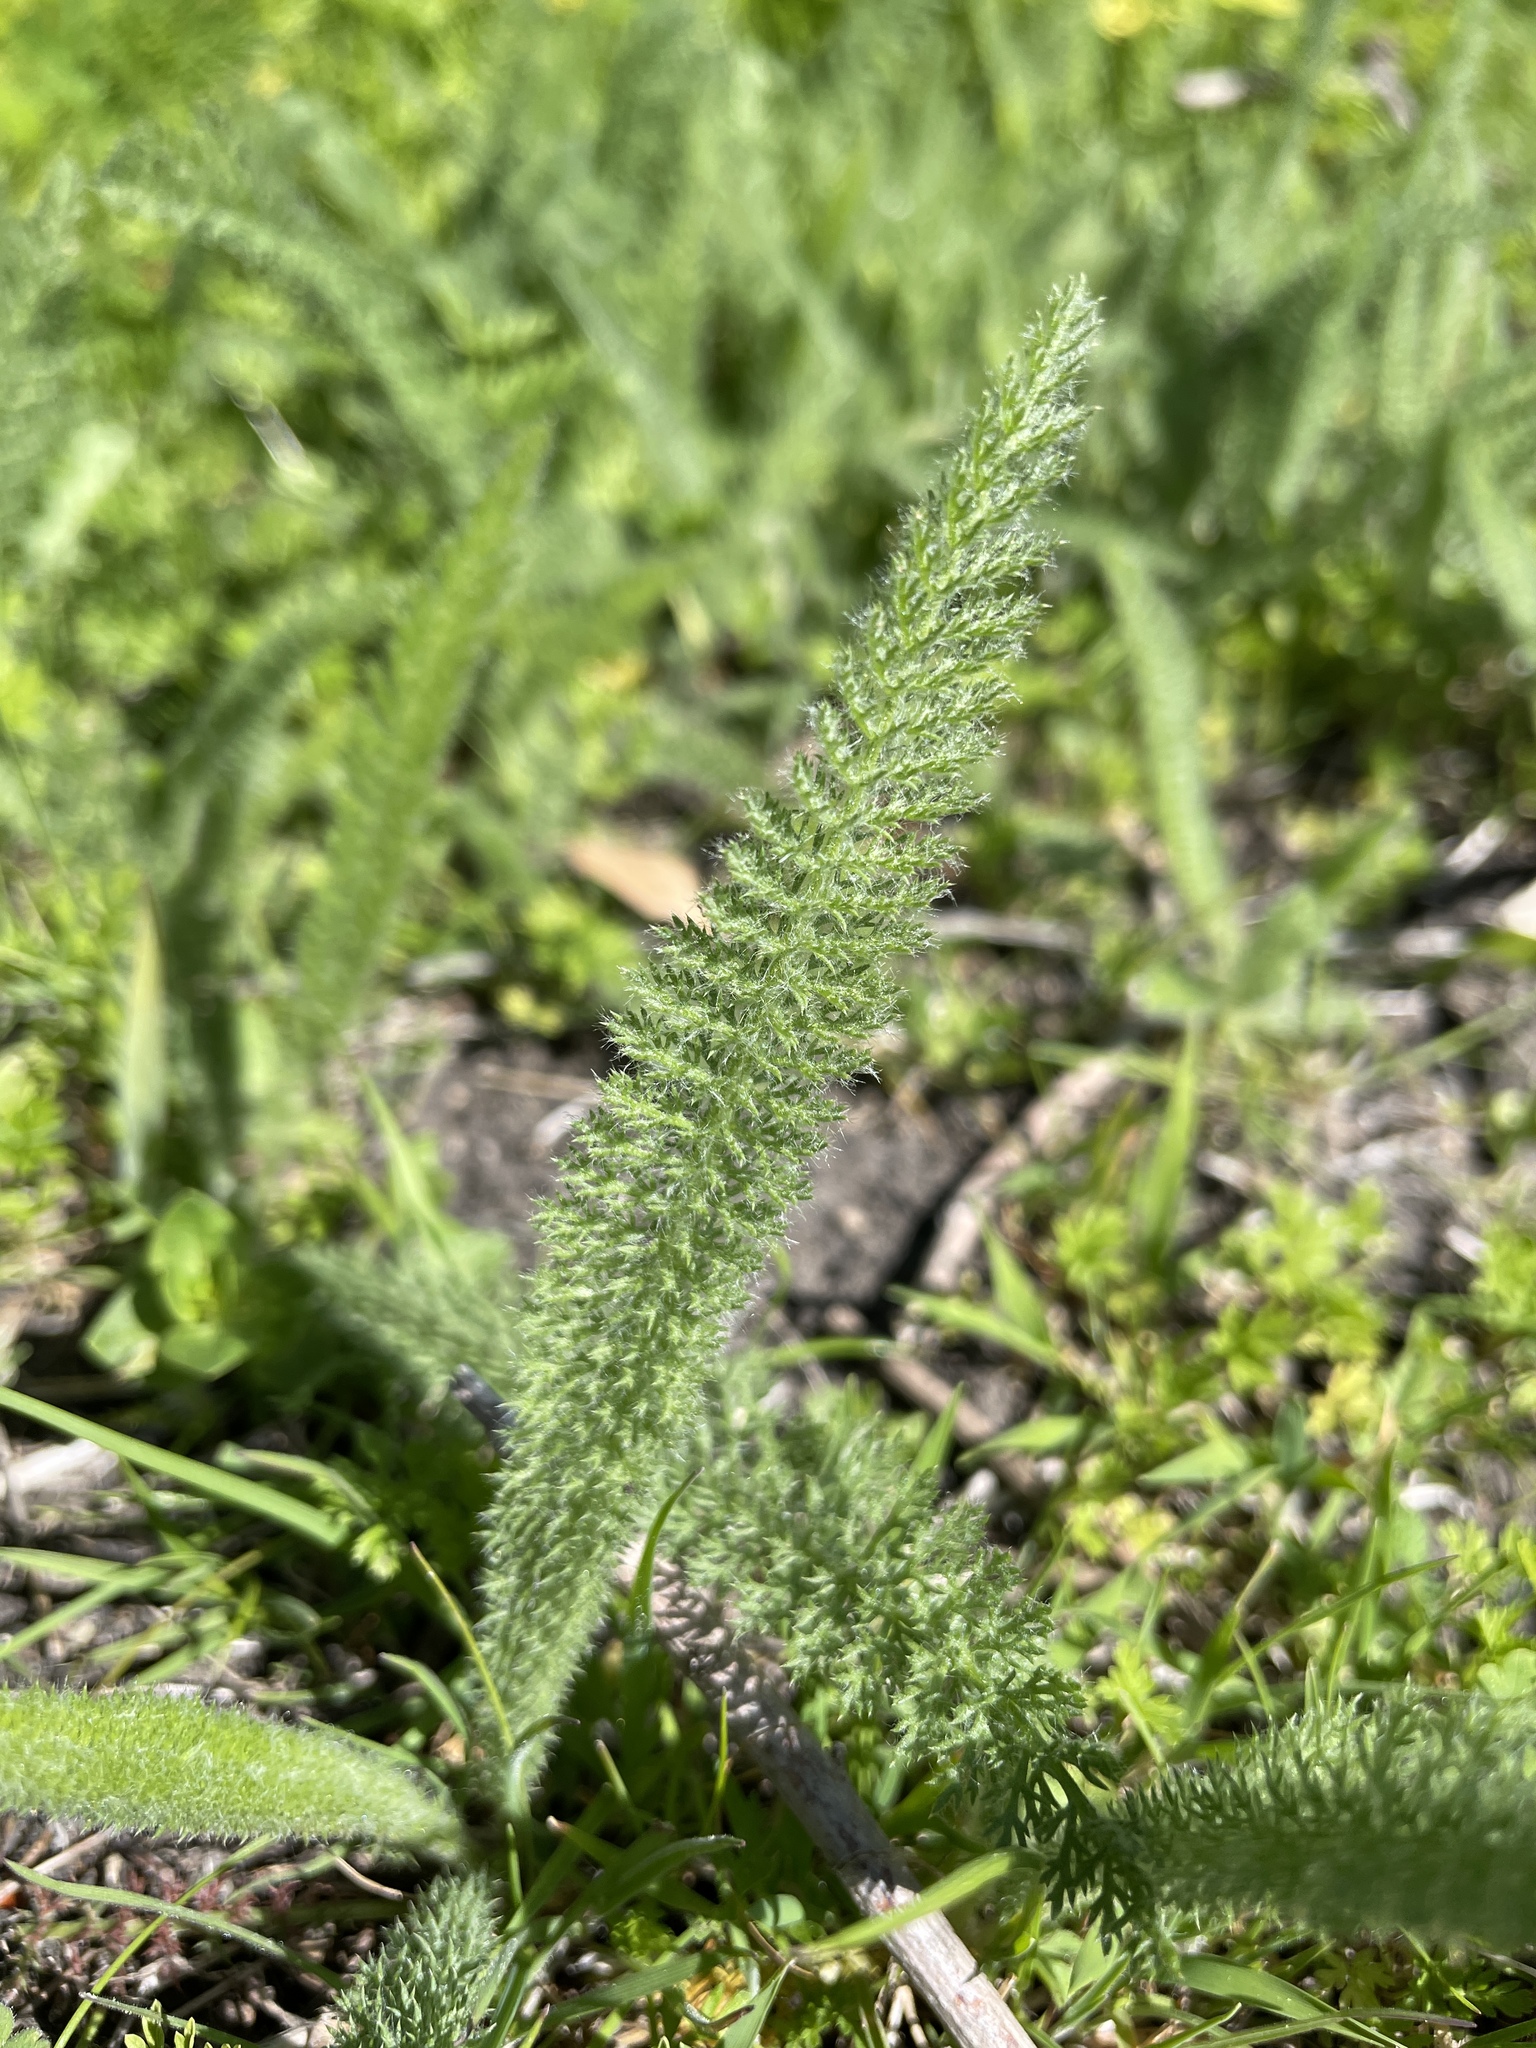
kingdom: Plantae
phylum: Tracheophyta
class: Magnoliopsida
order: Asterales
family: Asteraceae
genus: Achillea
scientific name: Achillea millefolium
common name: Yarrow
